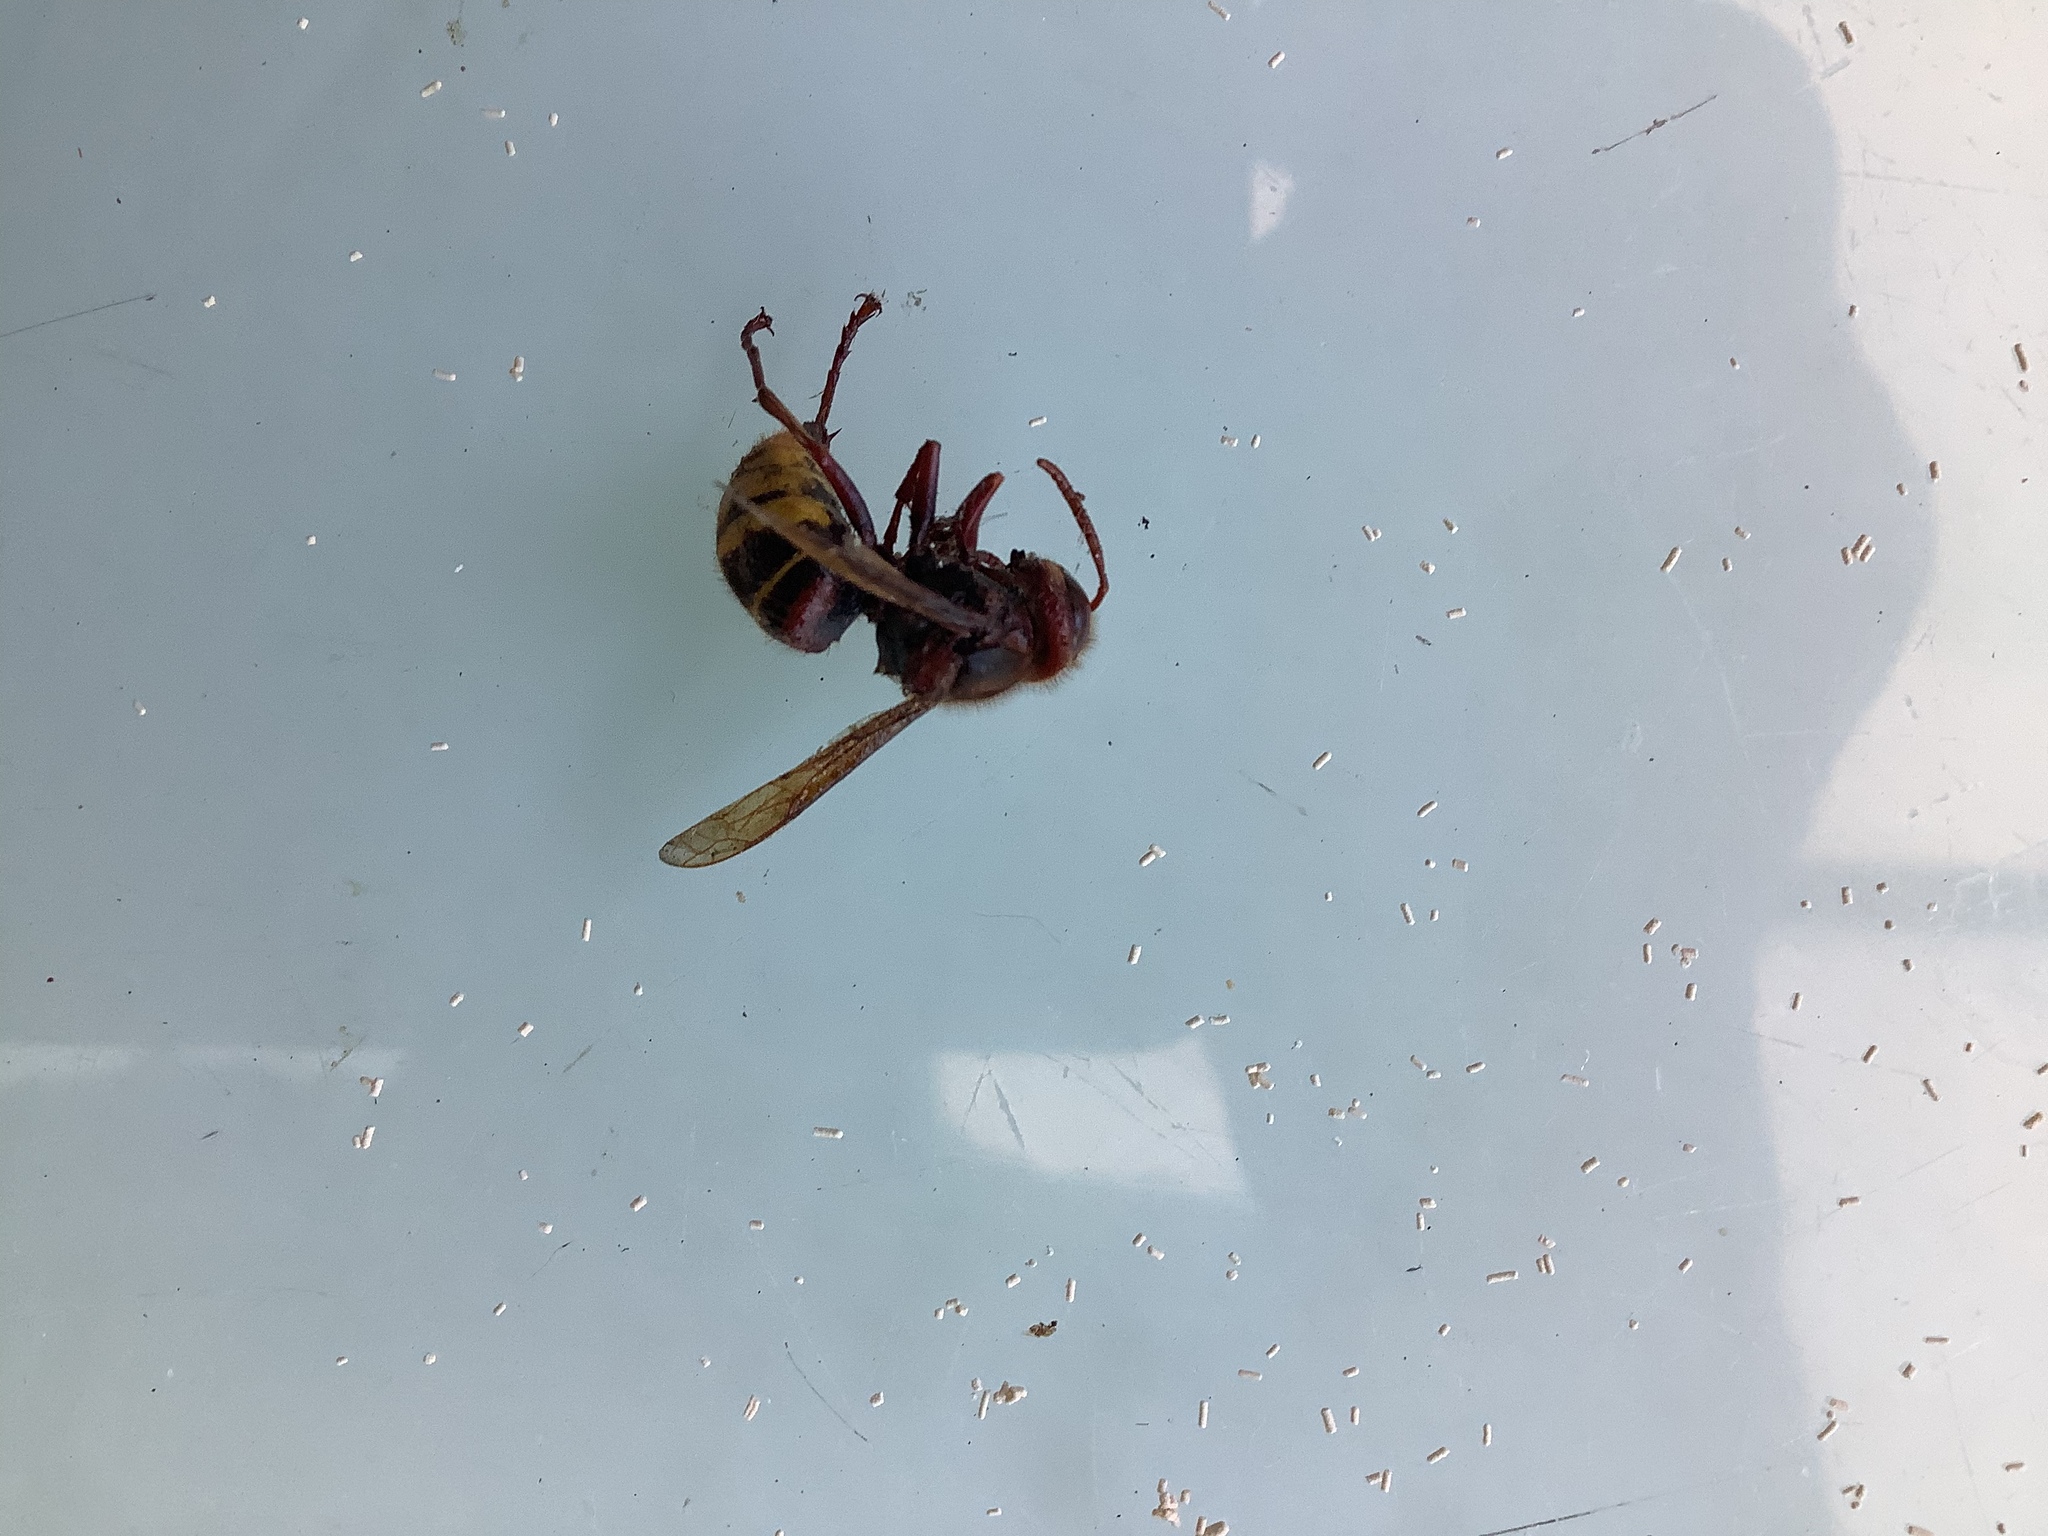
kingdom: Animalia
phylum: Arthropoda
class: Insecta
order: Hymenoptera
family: Vespidae
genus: Vespa
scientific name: Vespa crabro
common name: Hornet
